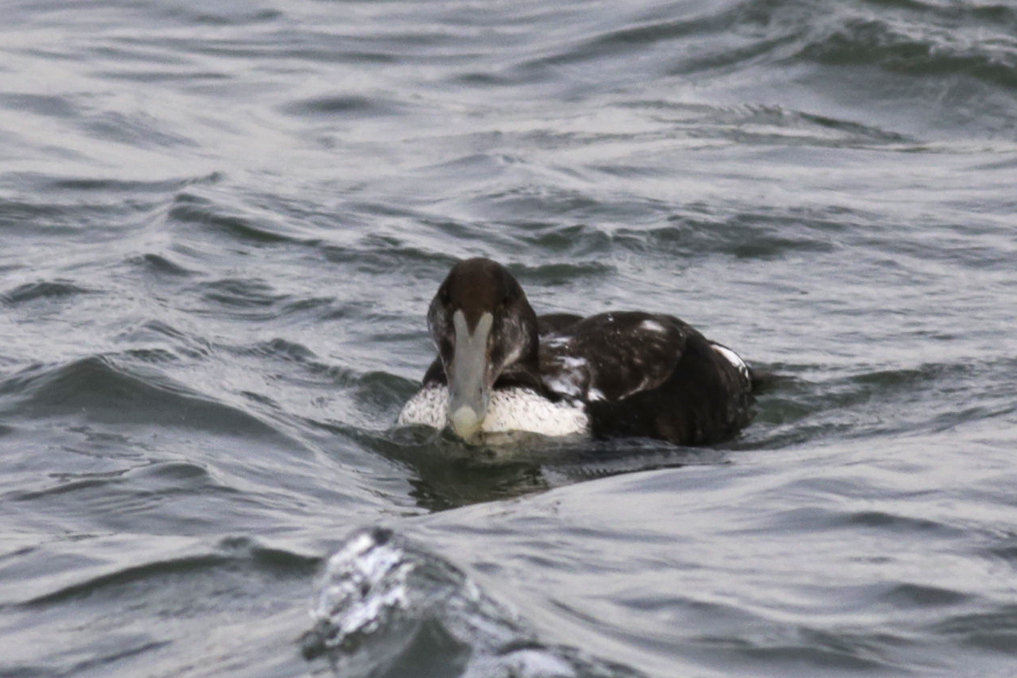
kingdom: Animalia
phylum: Chordata
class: Aves
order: Anseriformes
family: Anatidae
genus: Somateria
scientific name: Somateria mollissima
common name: Common eider
